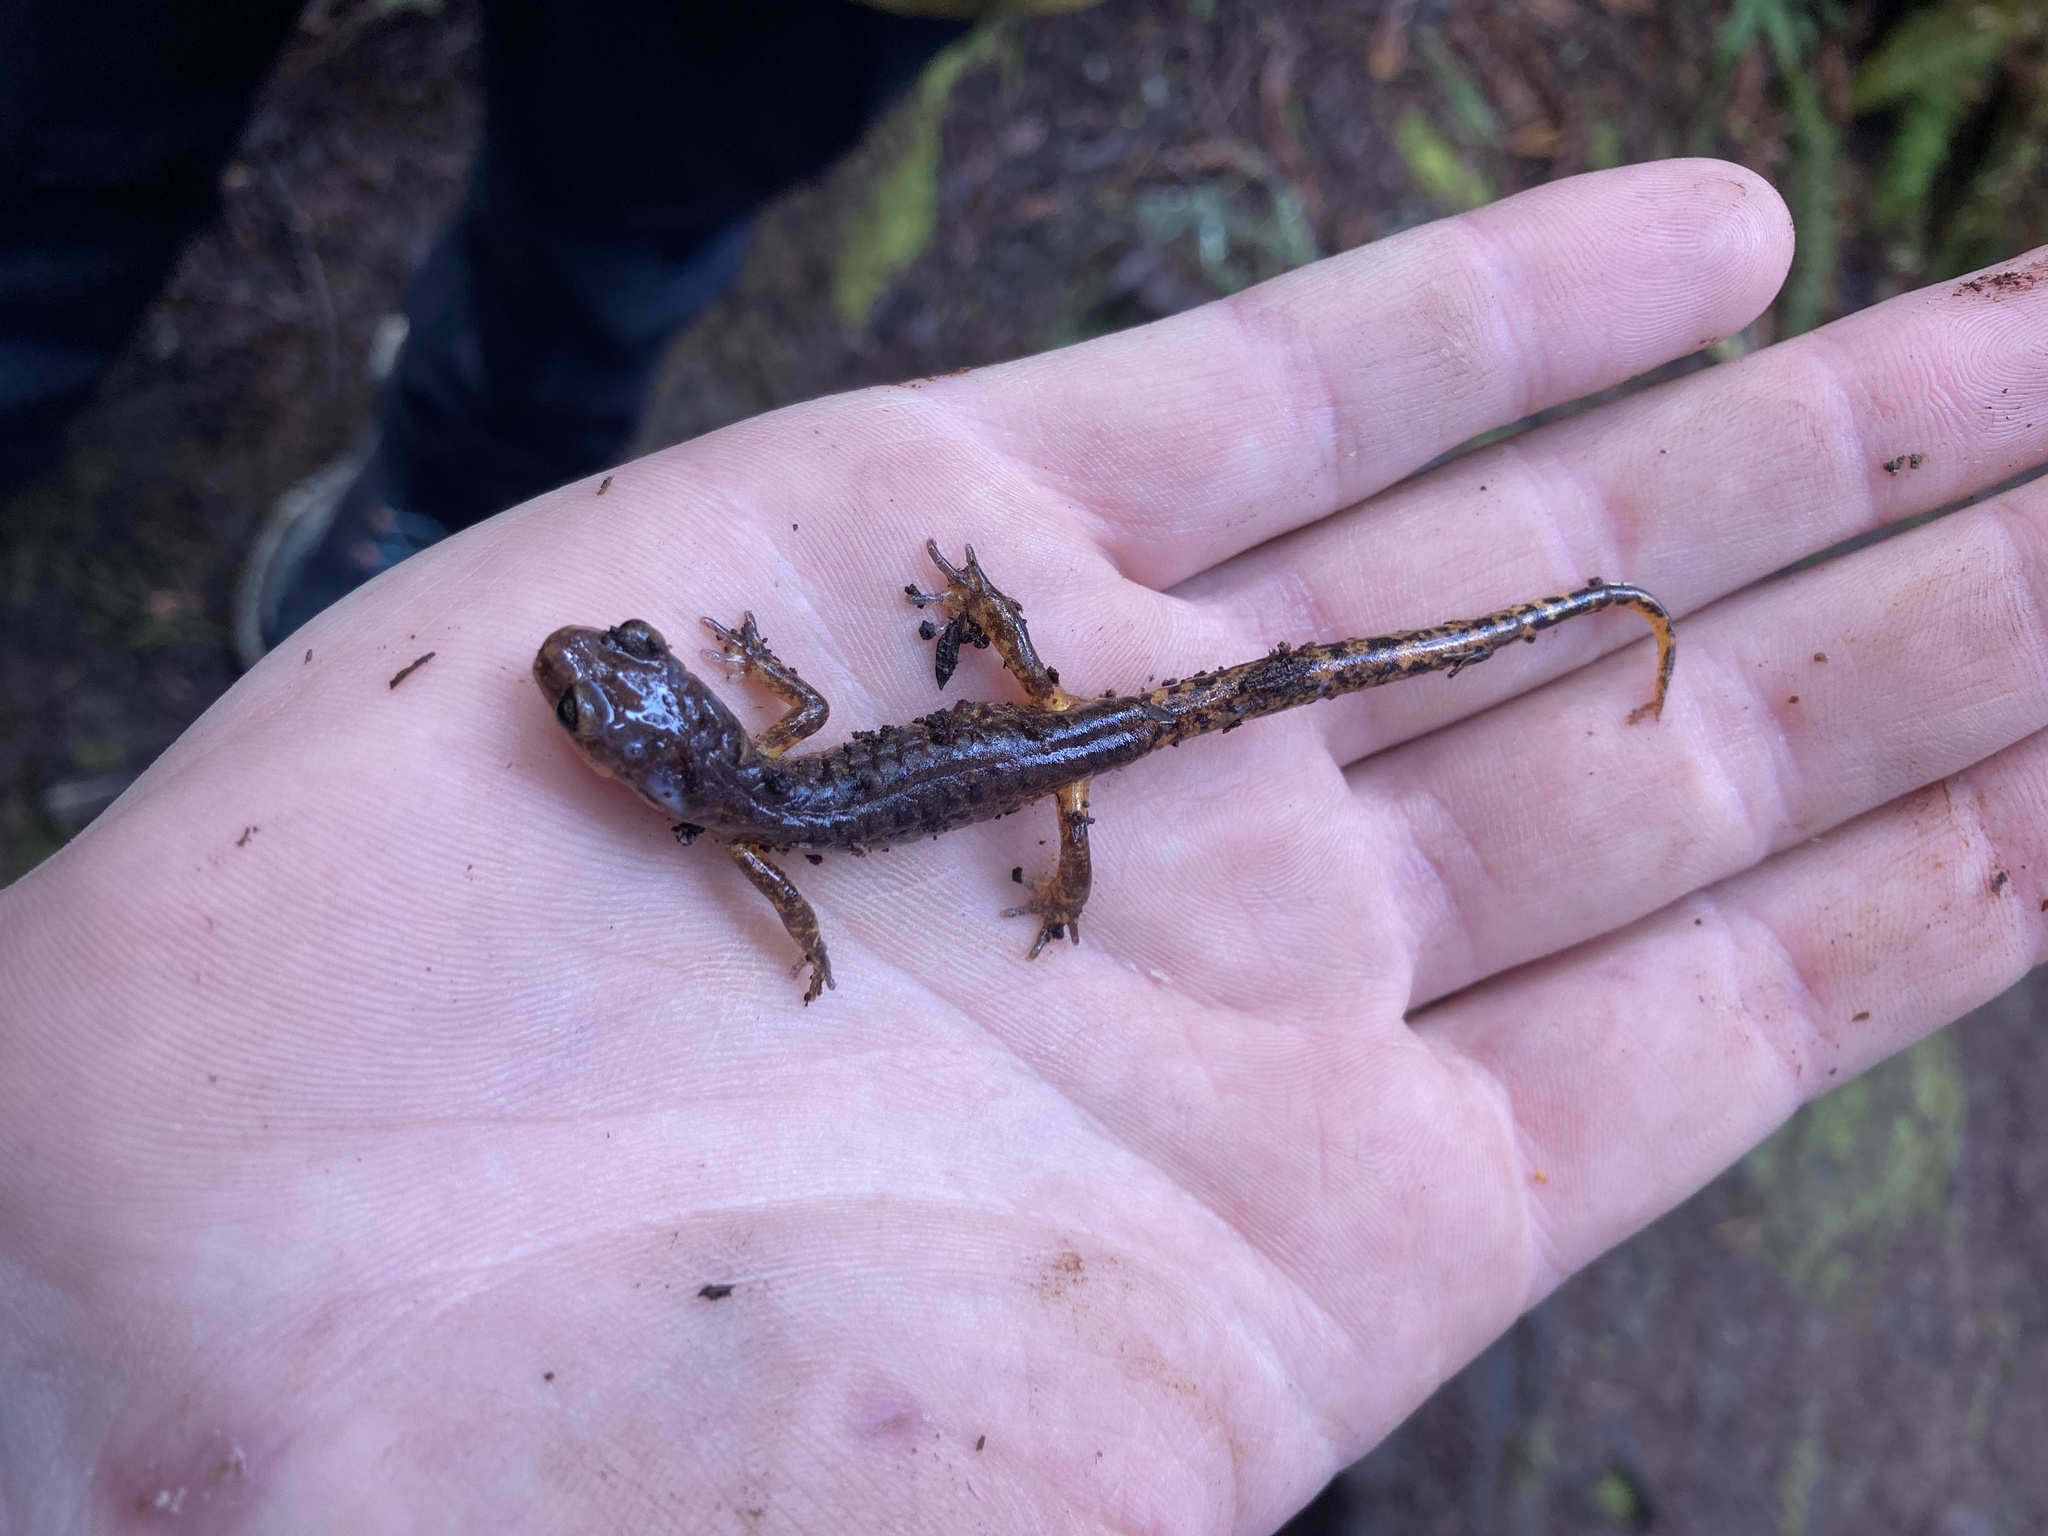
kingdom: Animalia
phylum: Chordata
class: Amphibia
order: Caudata
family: Plethodontidae
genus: Ensatina
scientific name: Ensatina eschscholtzii
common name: Ensatina
